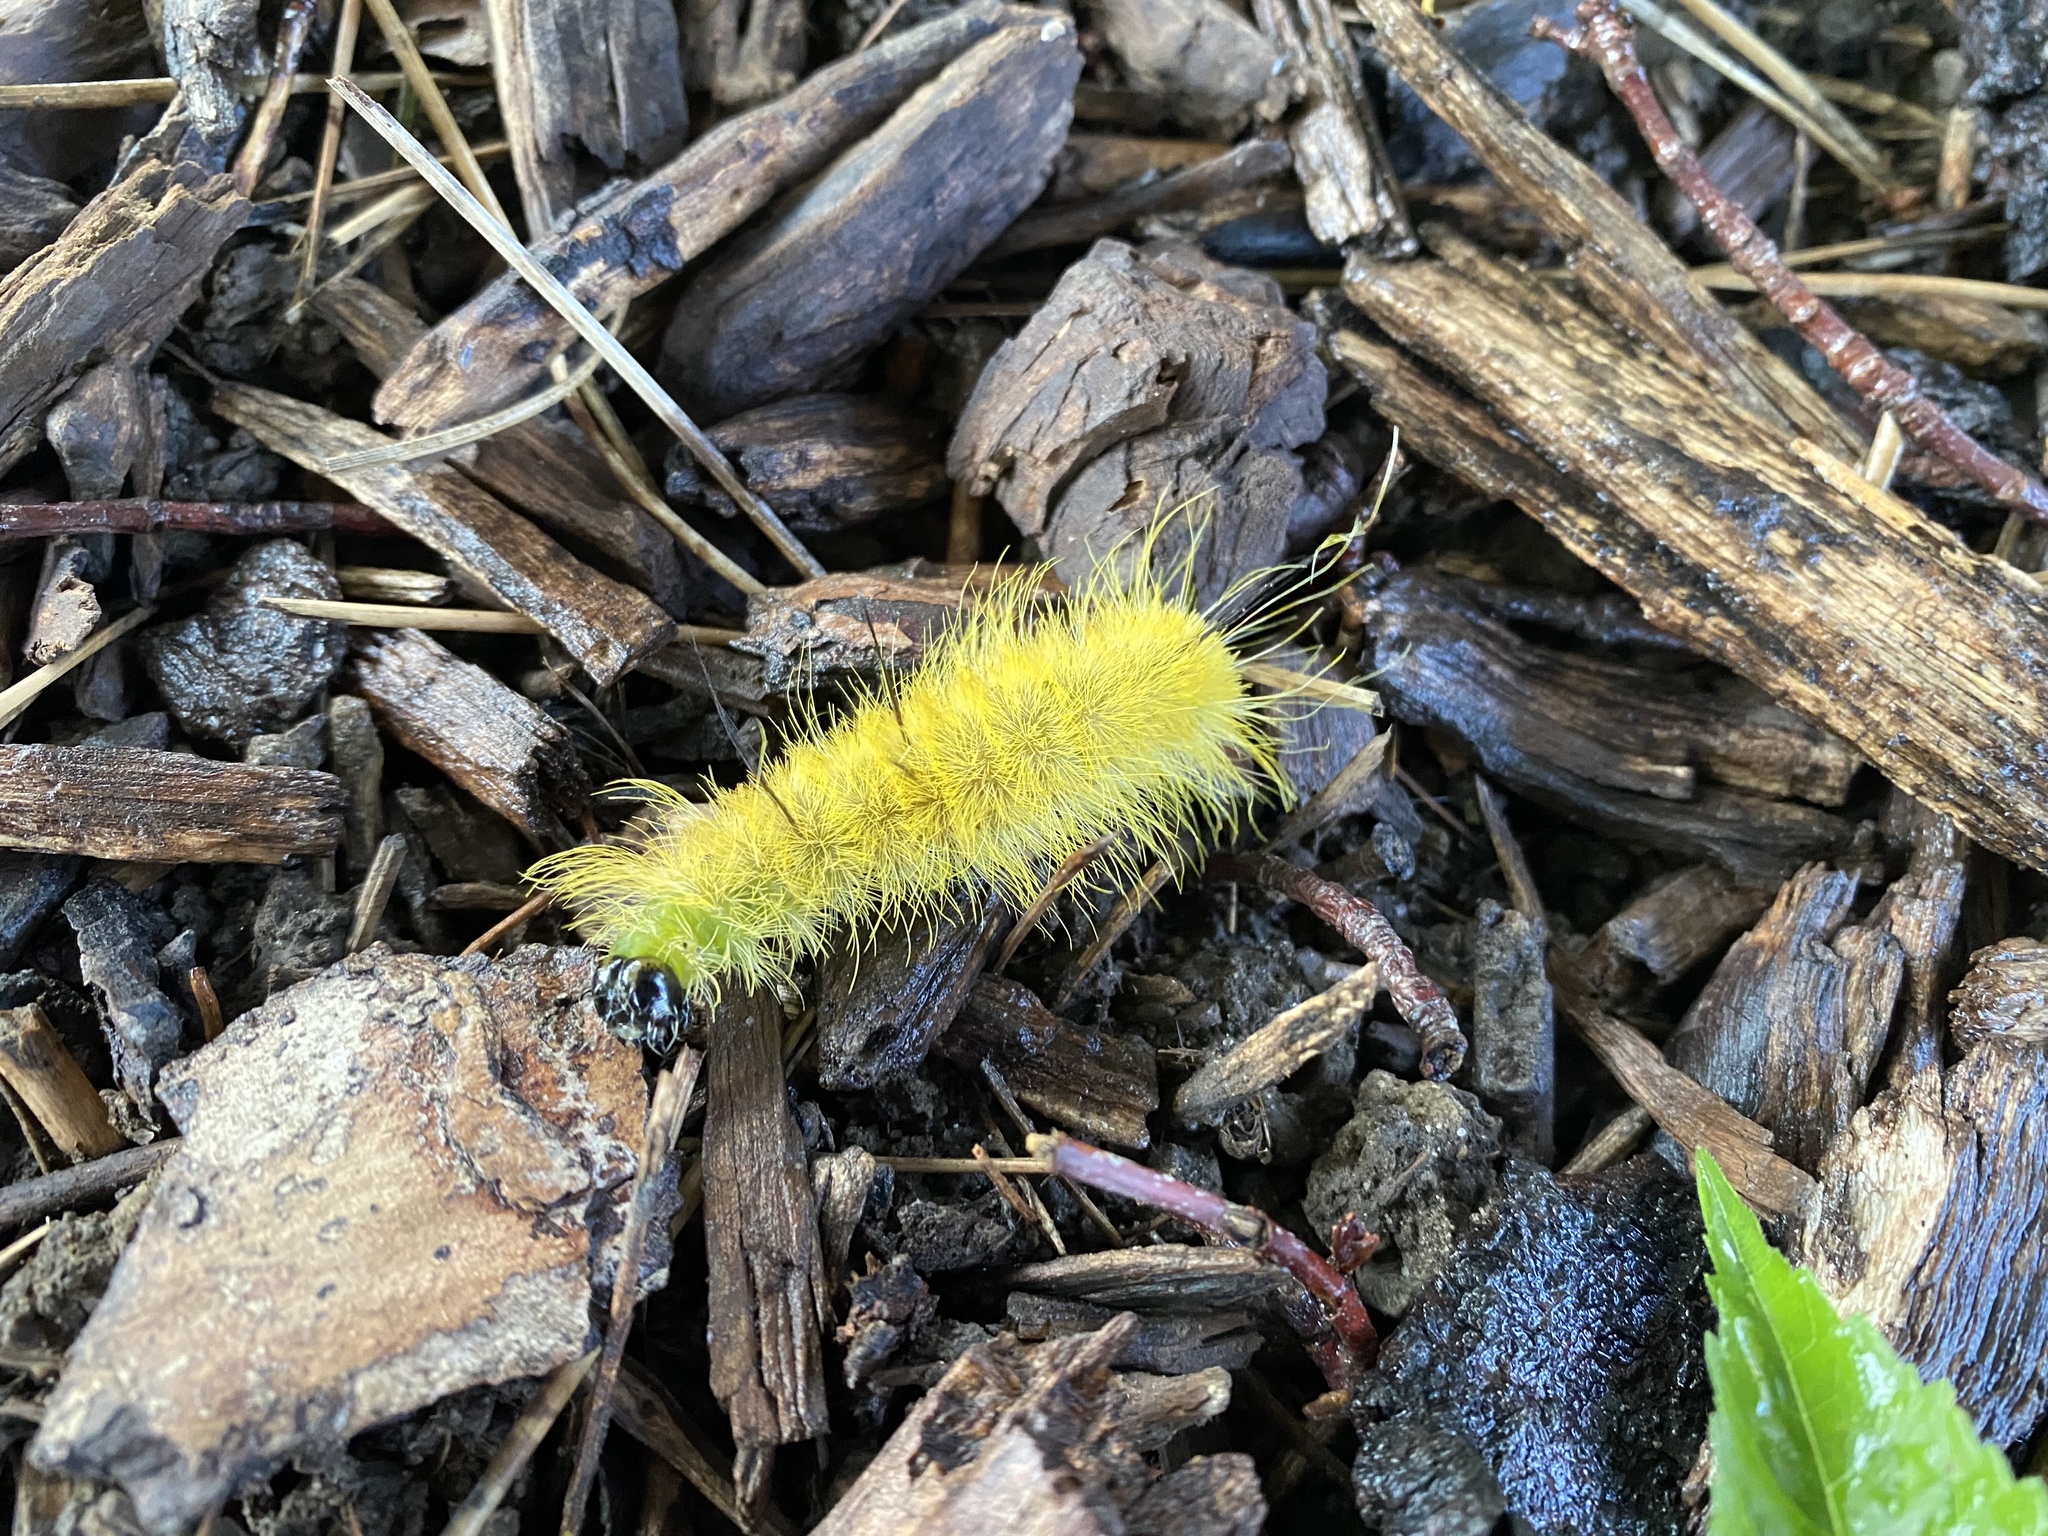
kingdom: Animalia
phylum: Arthropoda
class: Insecta
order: Lepidoptera
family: Noctuidae
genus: Acronicta
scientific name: Acronicta americana
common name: American dagger
